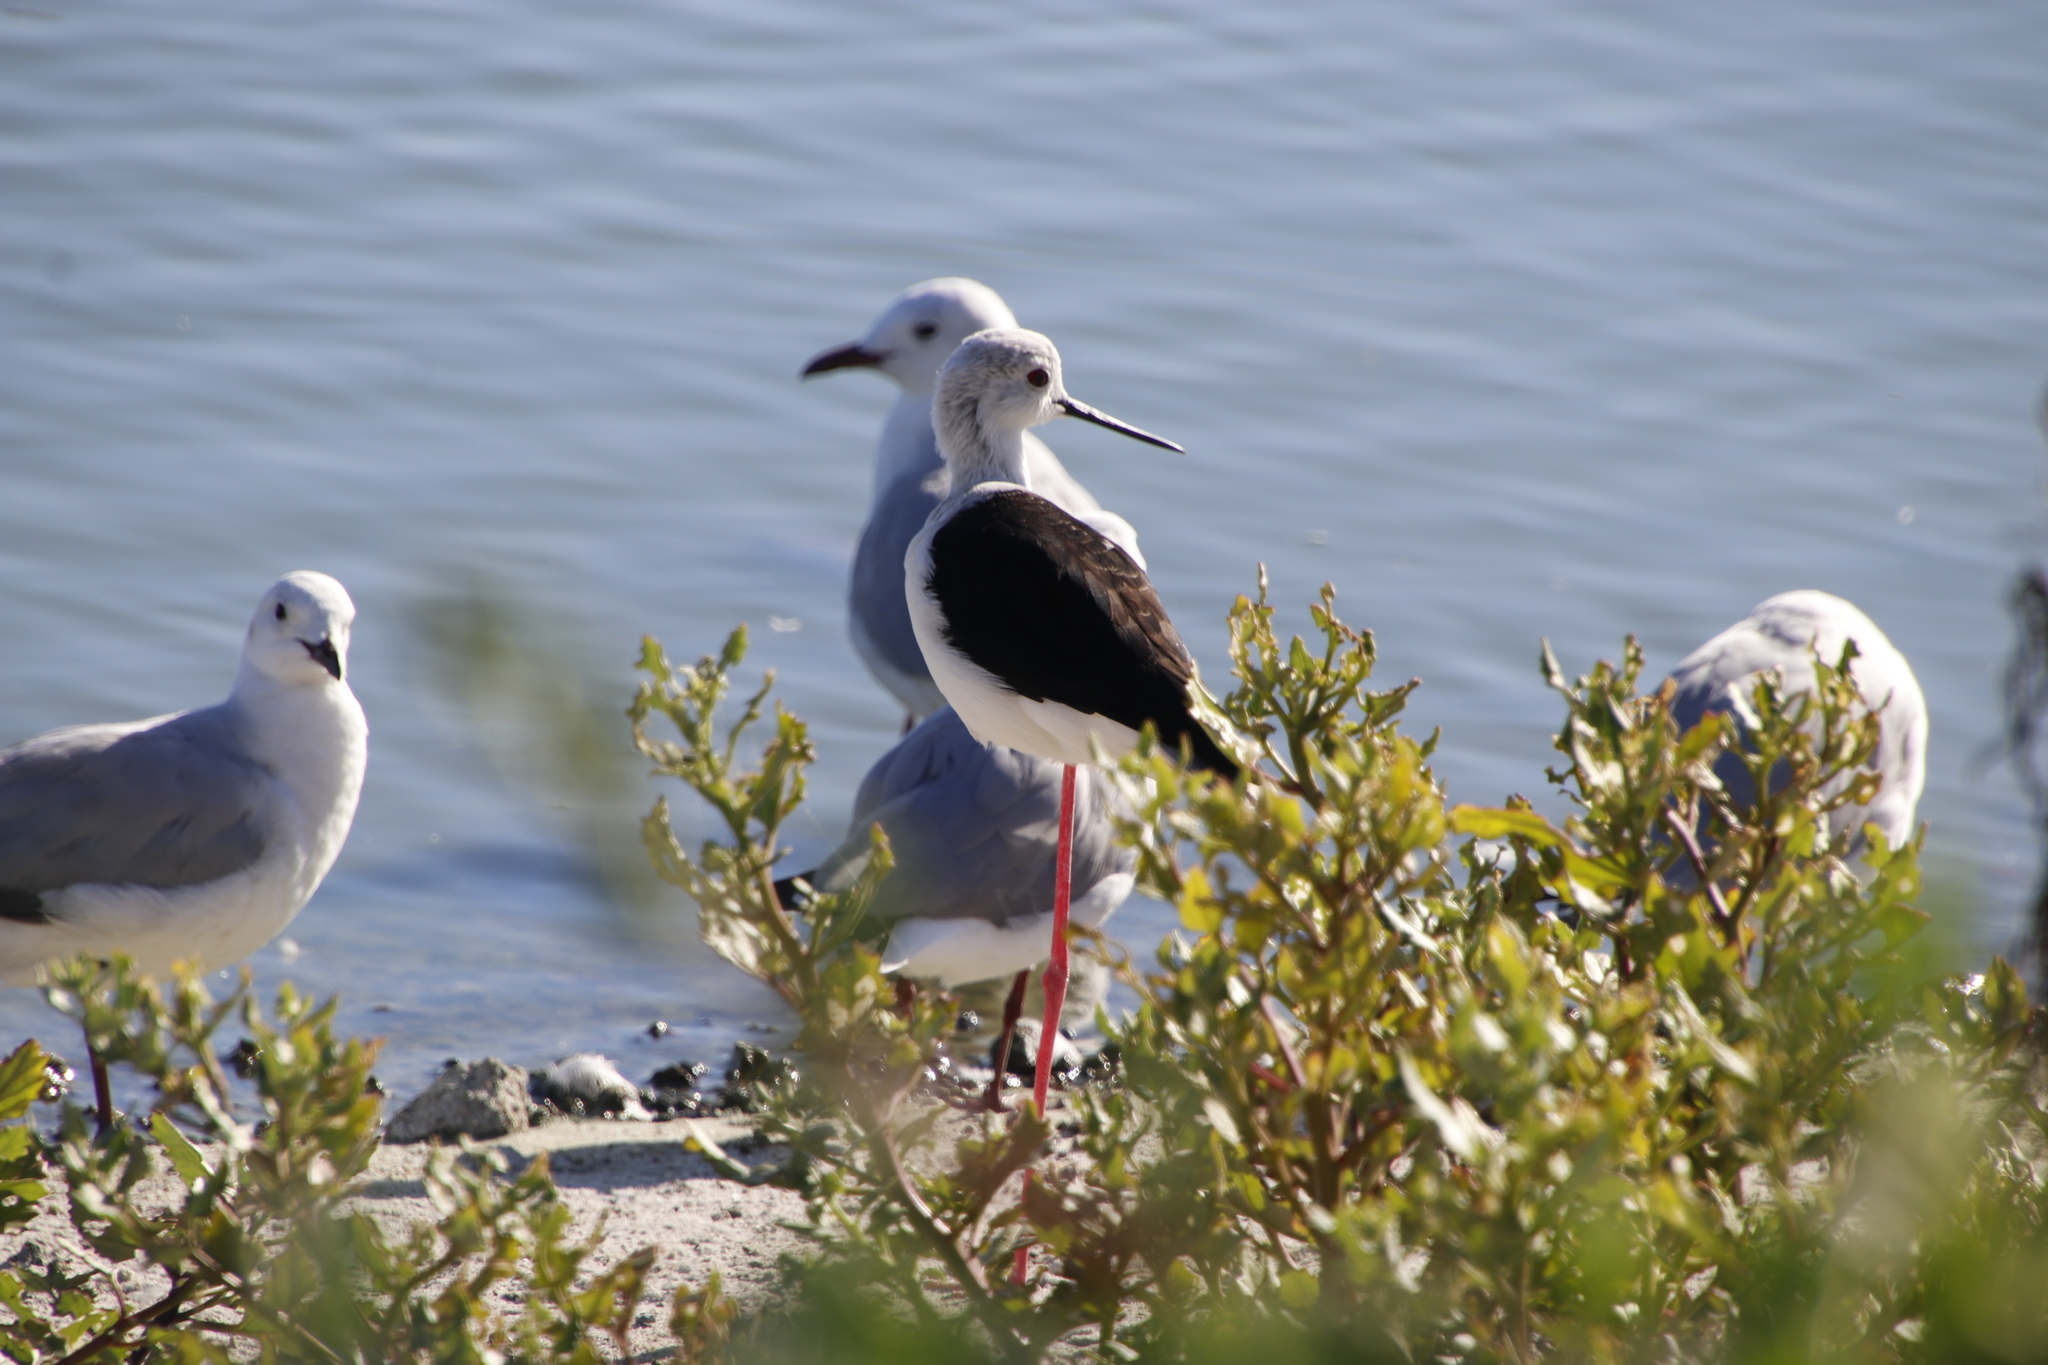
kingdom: Animalia
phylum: Chordata
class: Aves
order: Charadriiformes
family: Recurvirostridae
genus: Himantopus
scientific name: Himantopus himantopus
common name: Black-winged stilt
